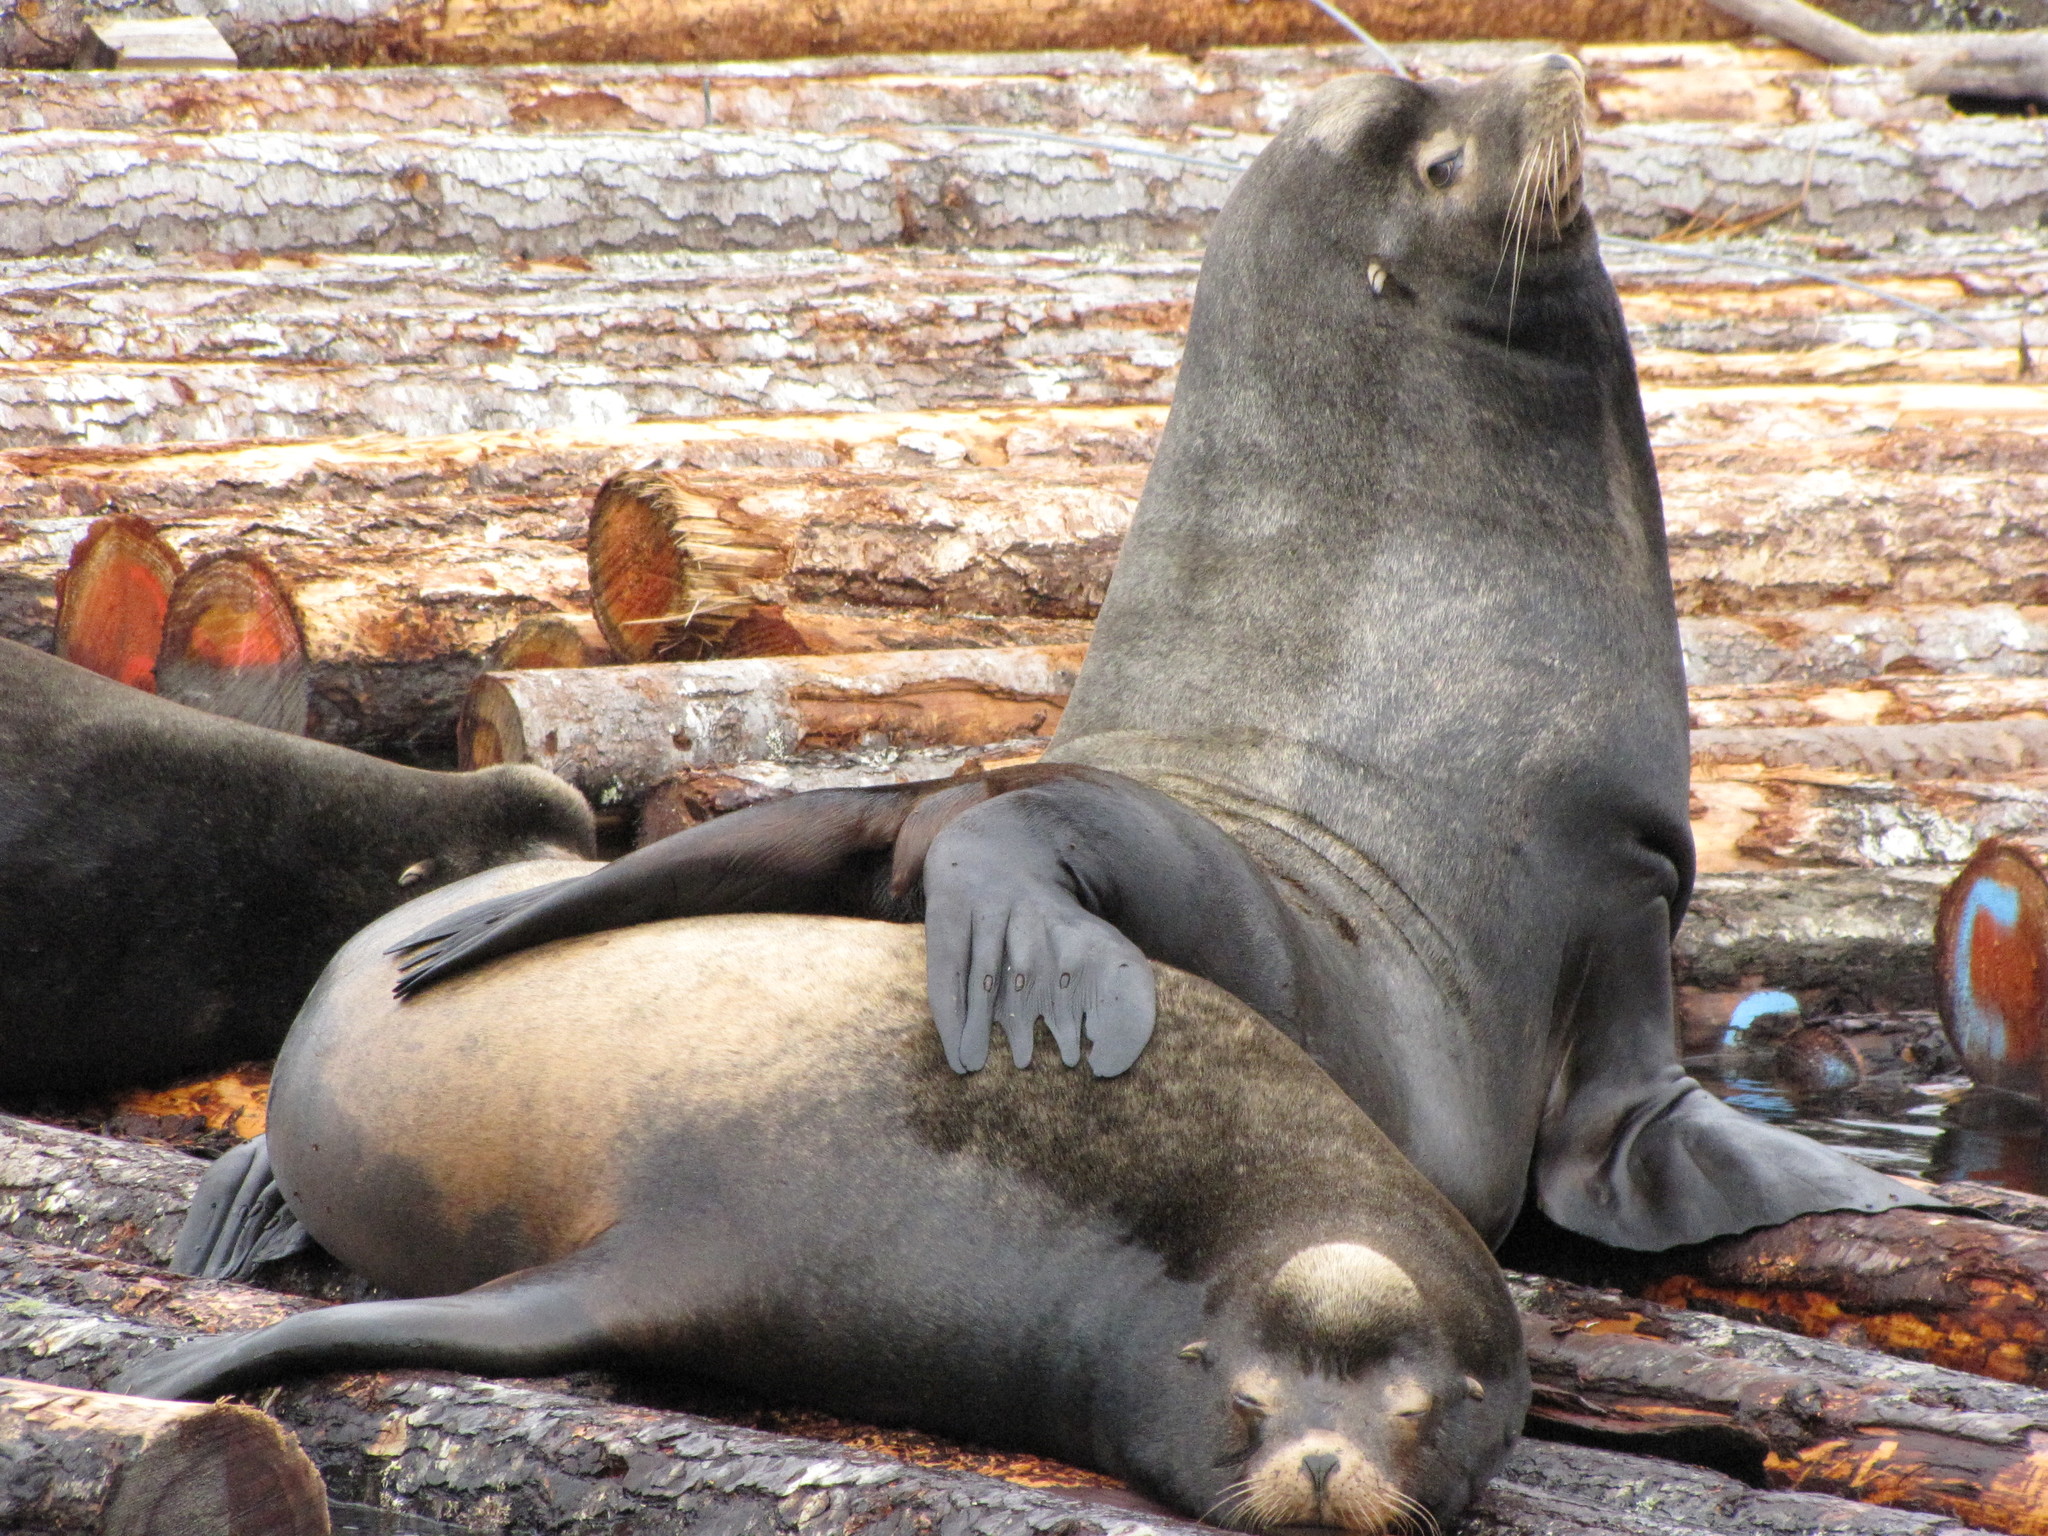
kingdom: Animalia
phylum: Chordata
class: Mammalia
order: Carnivora
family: Otariidae
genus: Zalophus
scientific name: Zalophus californianus
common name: California sea lion
